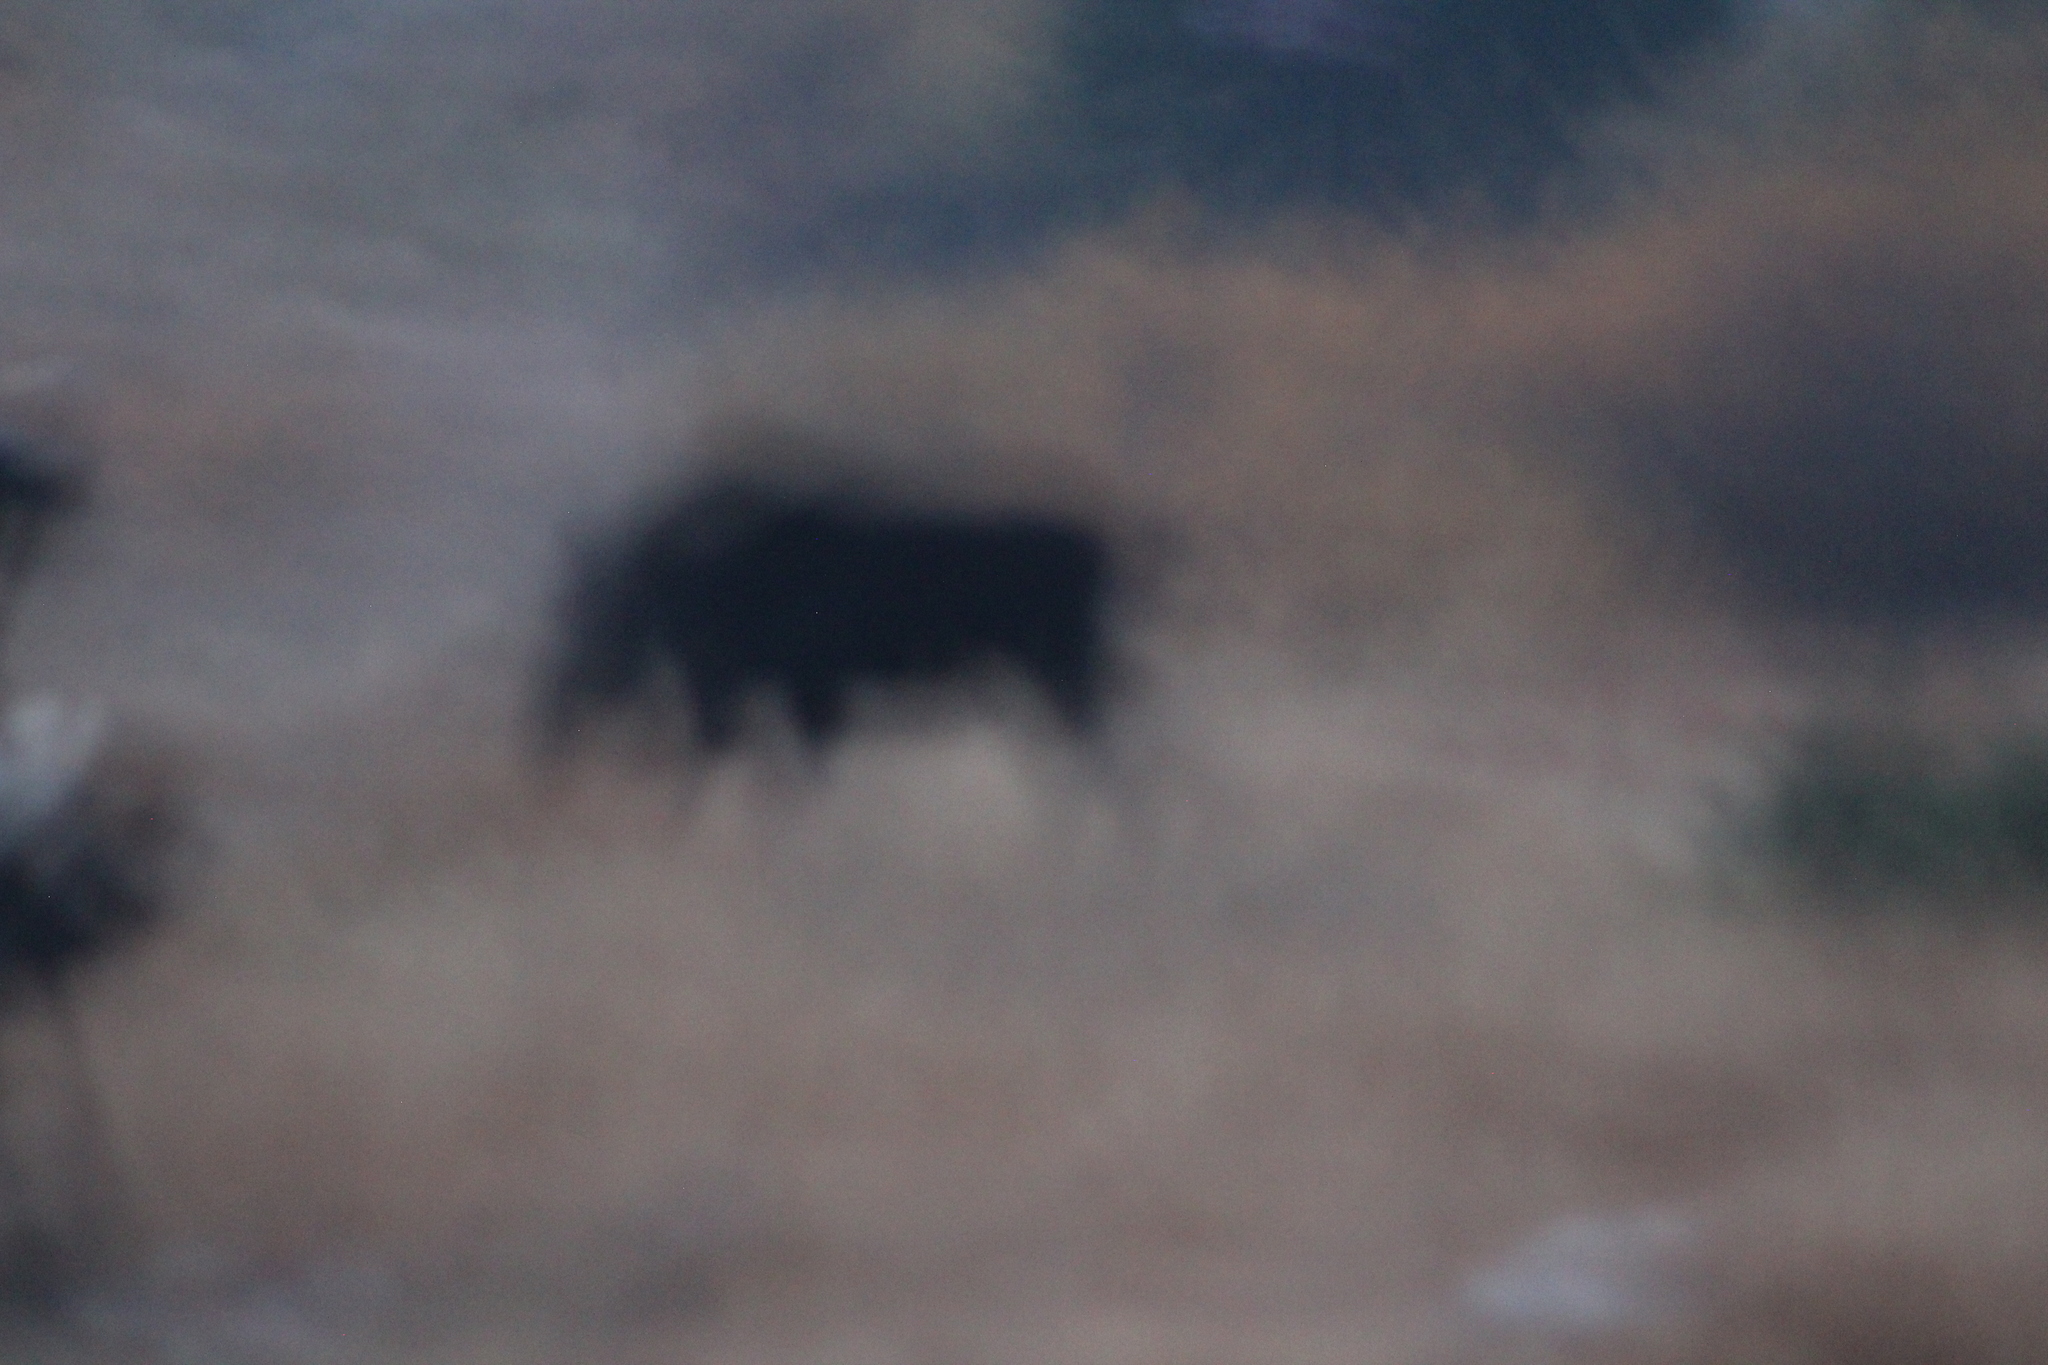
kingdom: Animalia
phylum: Chordata
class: Mammalia
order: Artiodactyla
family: Cervidae
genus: Alces
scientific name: Alces alces
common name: Moose
